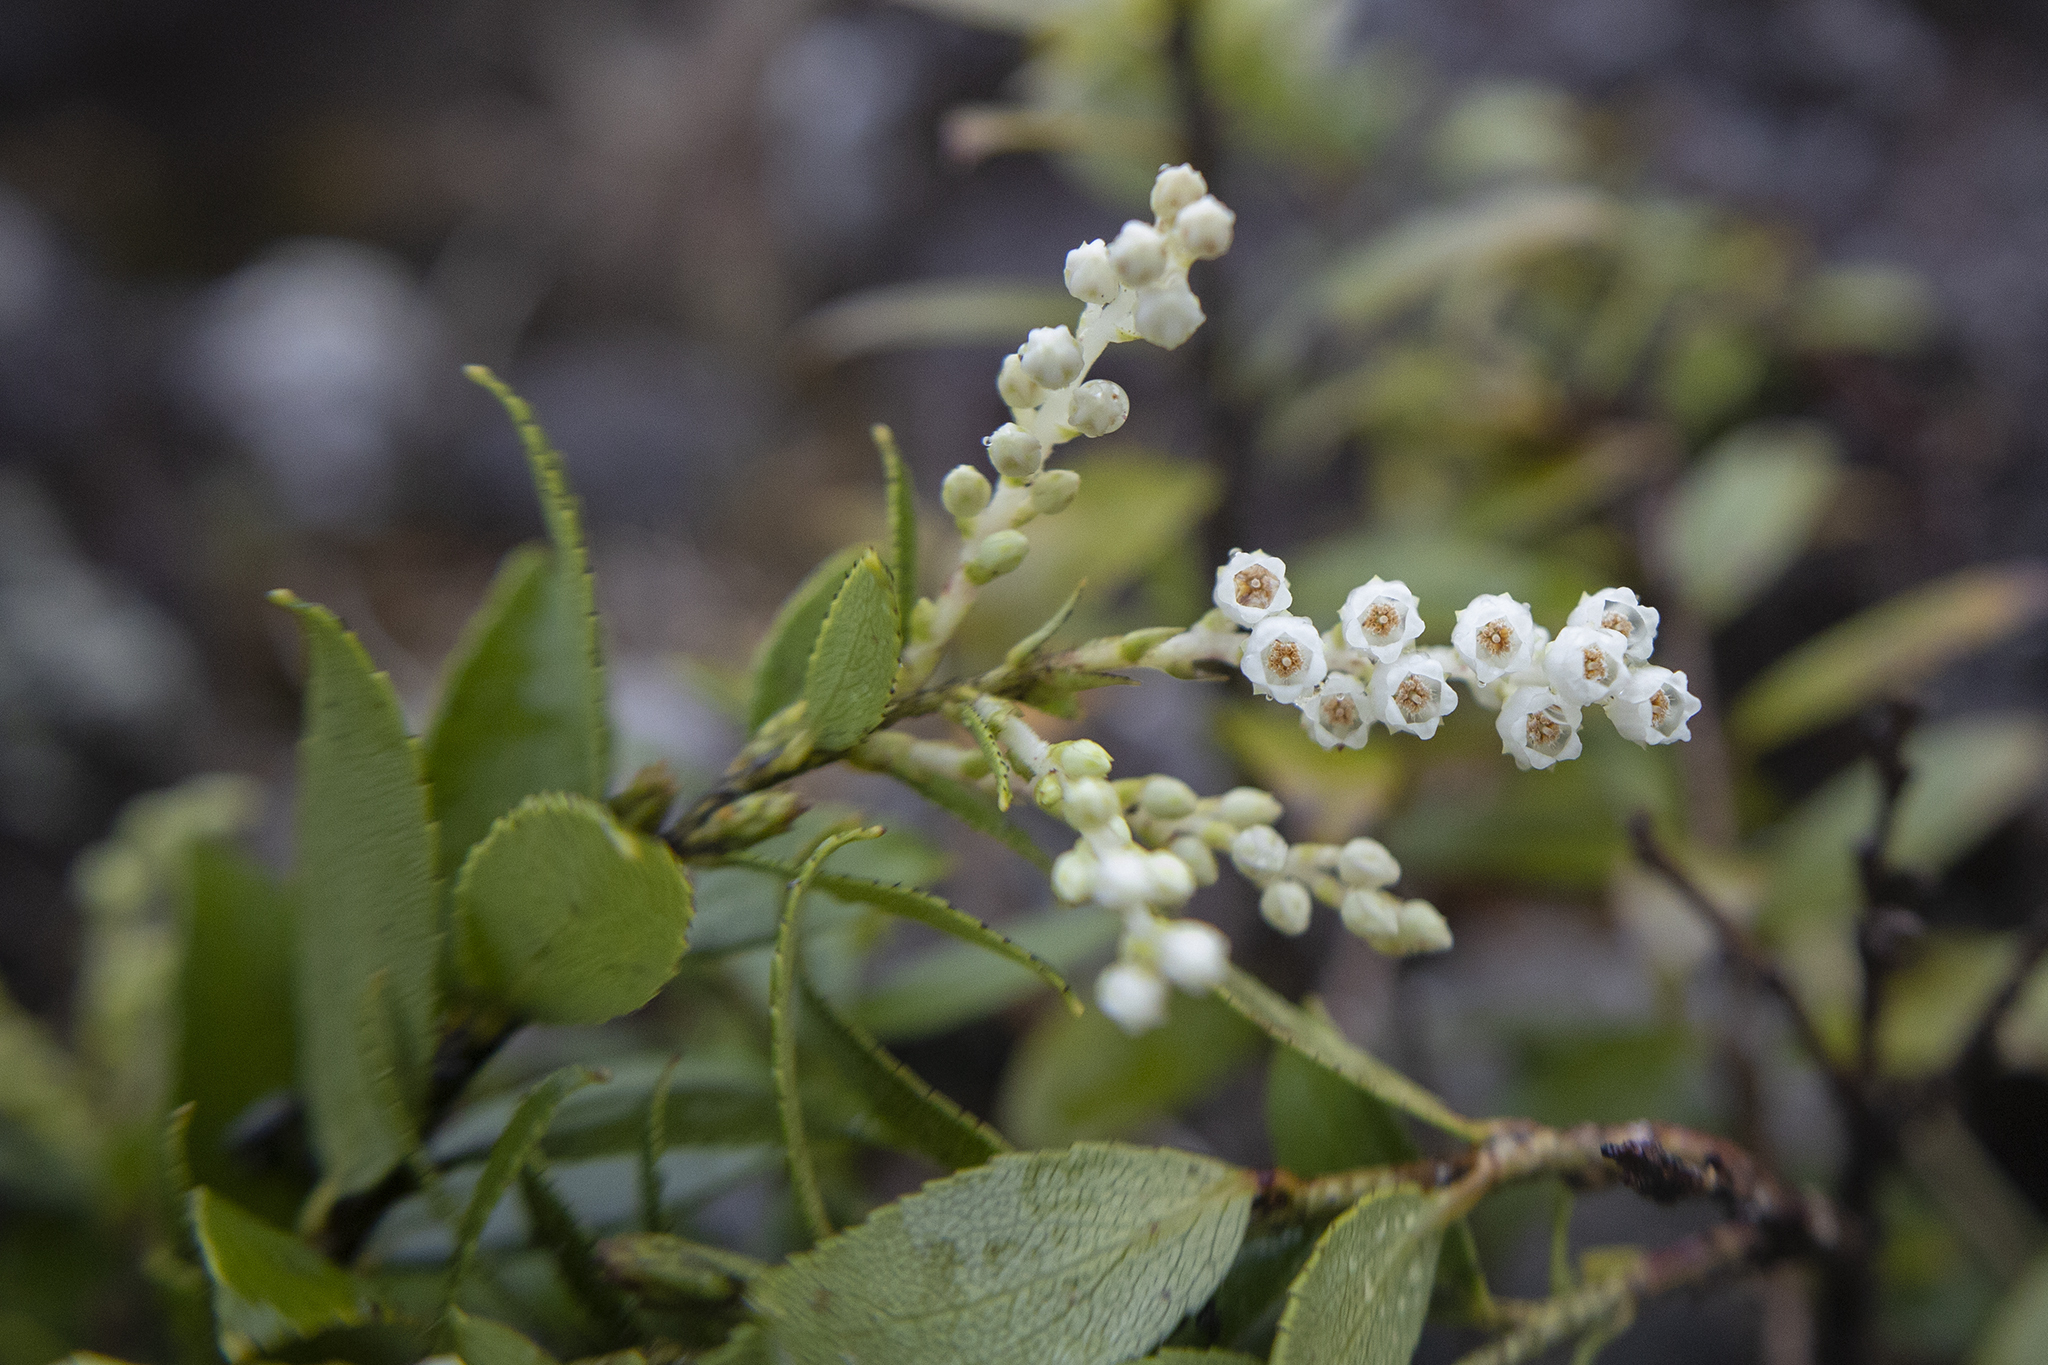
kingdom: Plantae
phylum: Tracheophyta
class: Magnoliopsida
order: Ericales
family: Ericaceae
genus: Gaultheria
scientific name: Gaultheria rupestris
